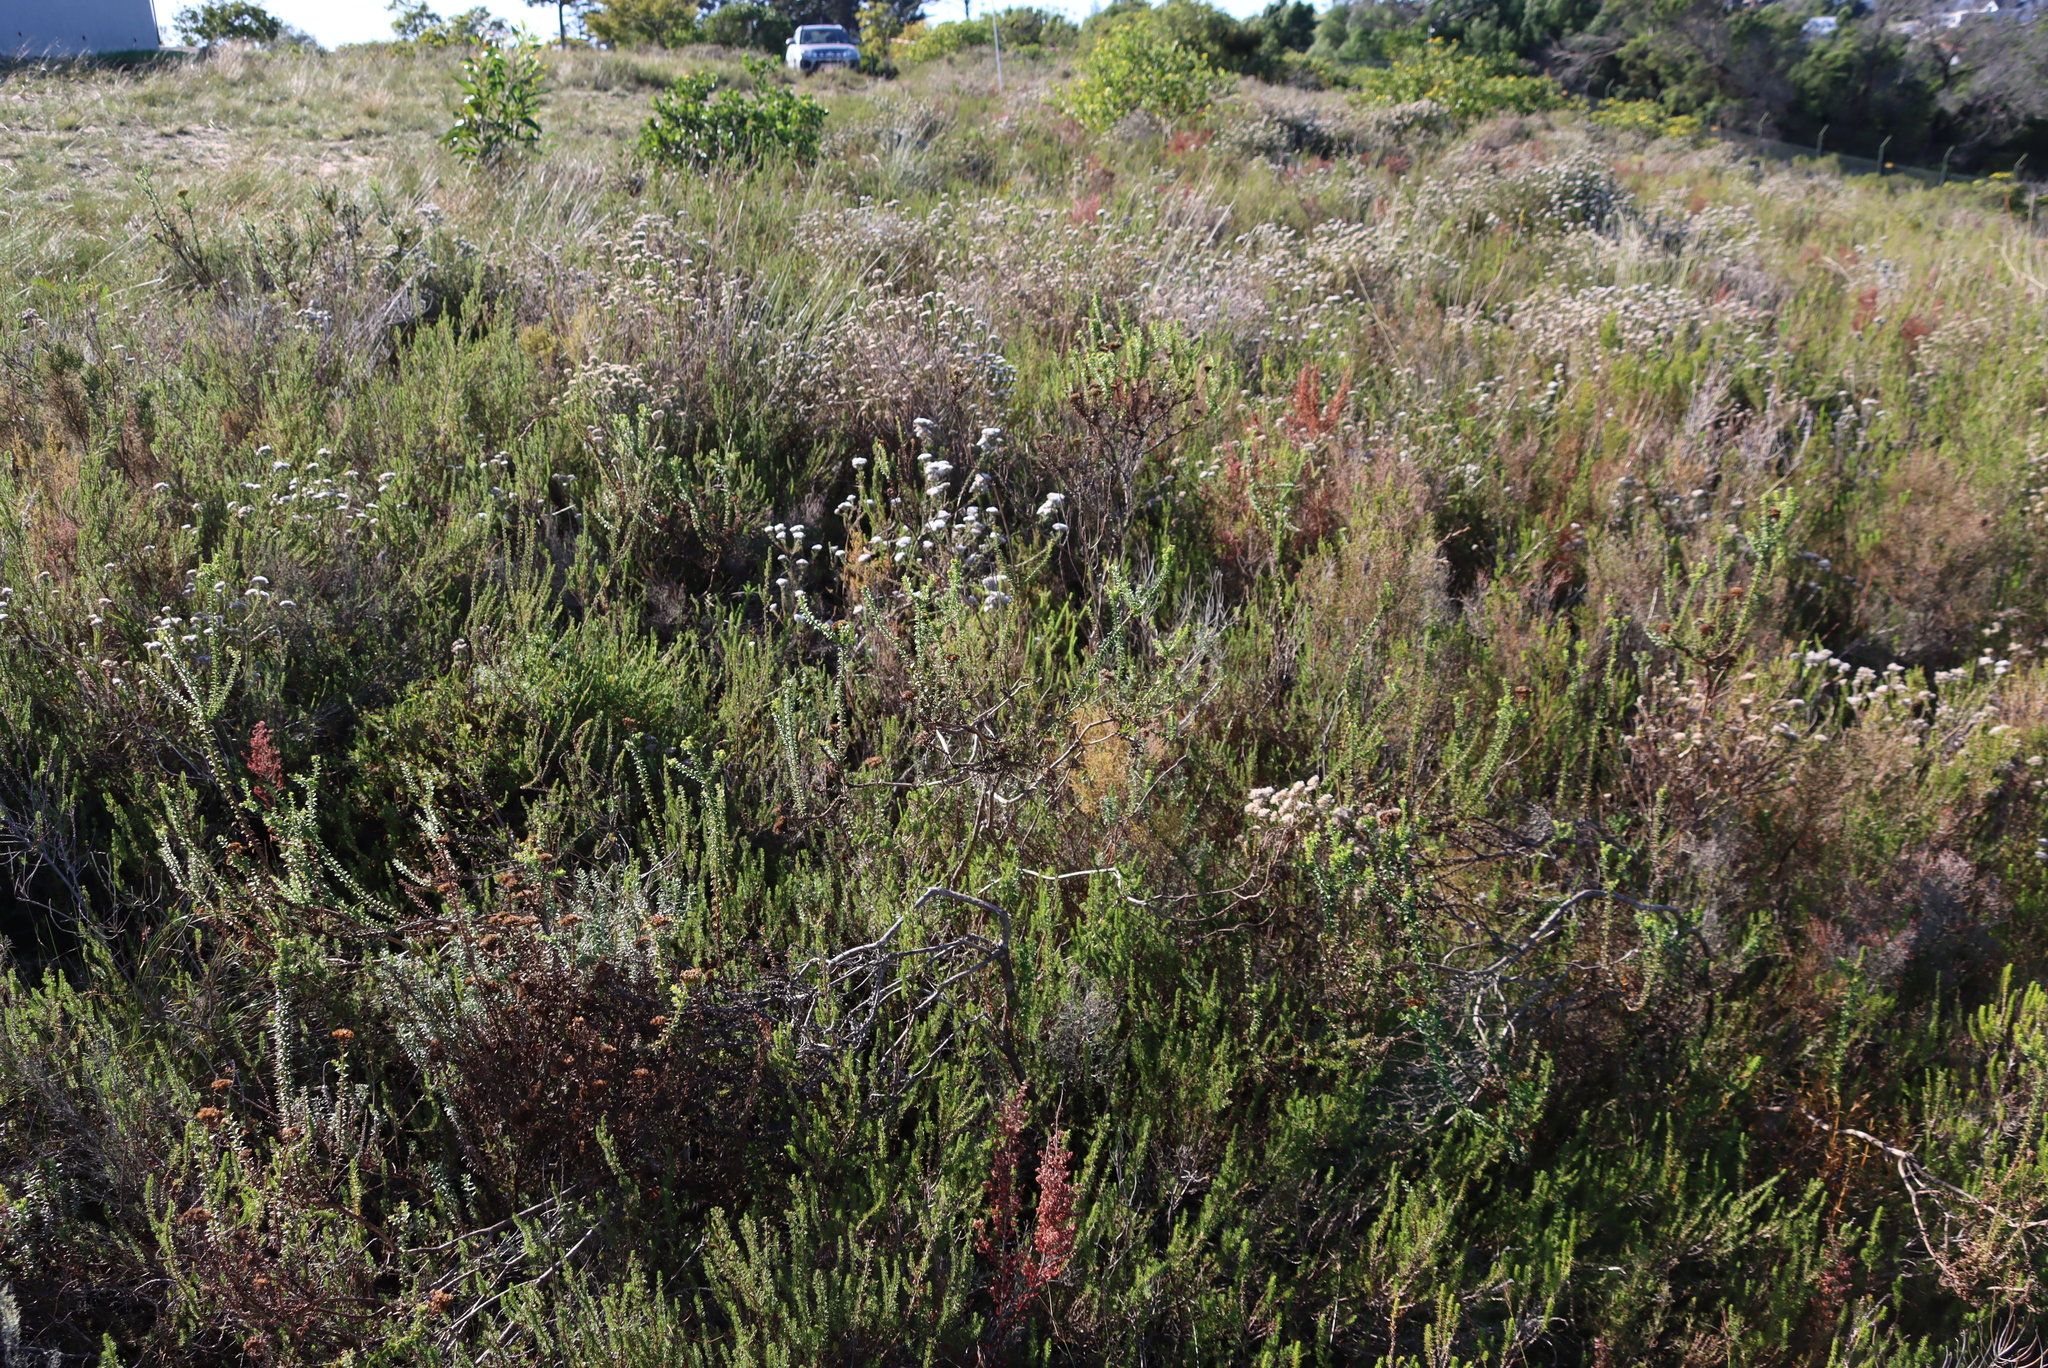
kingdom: Plantae
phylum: Tracheophyta
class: Magnoliopsida
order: Asterales
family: Asteraceae
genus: Metalasia
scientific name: Metalasia pungens
